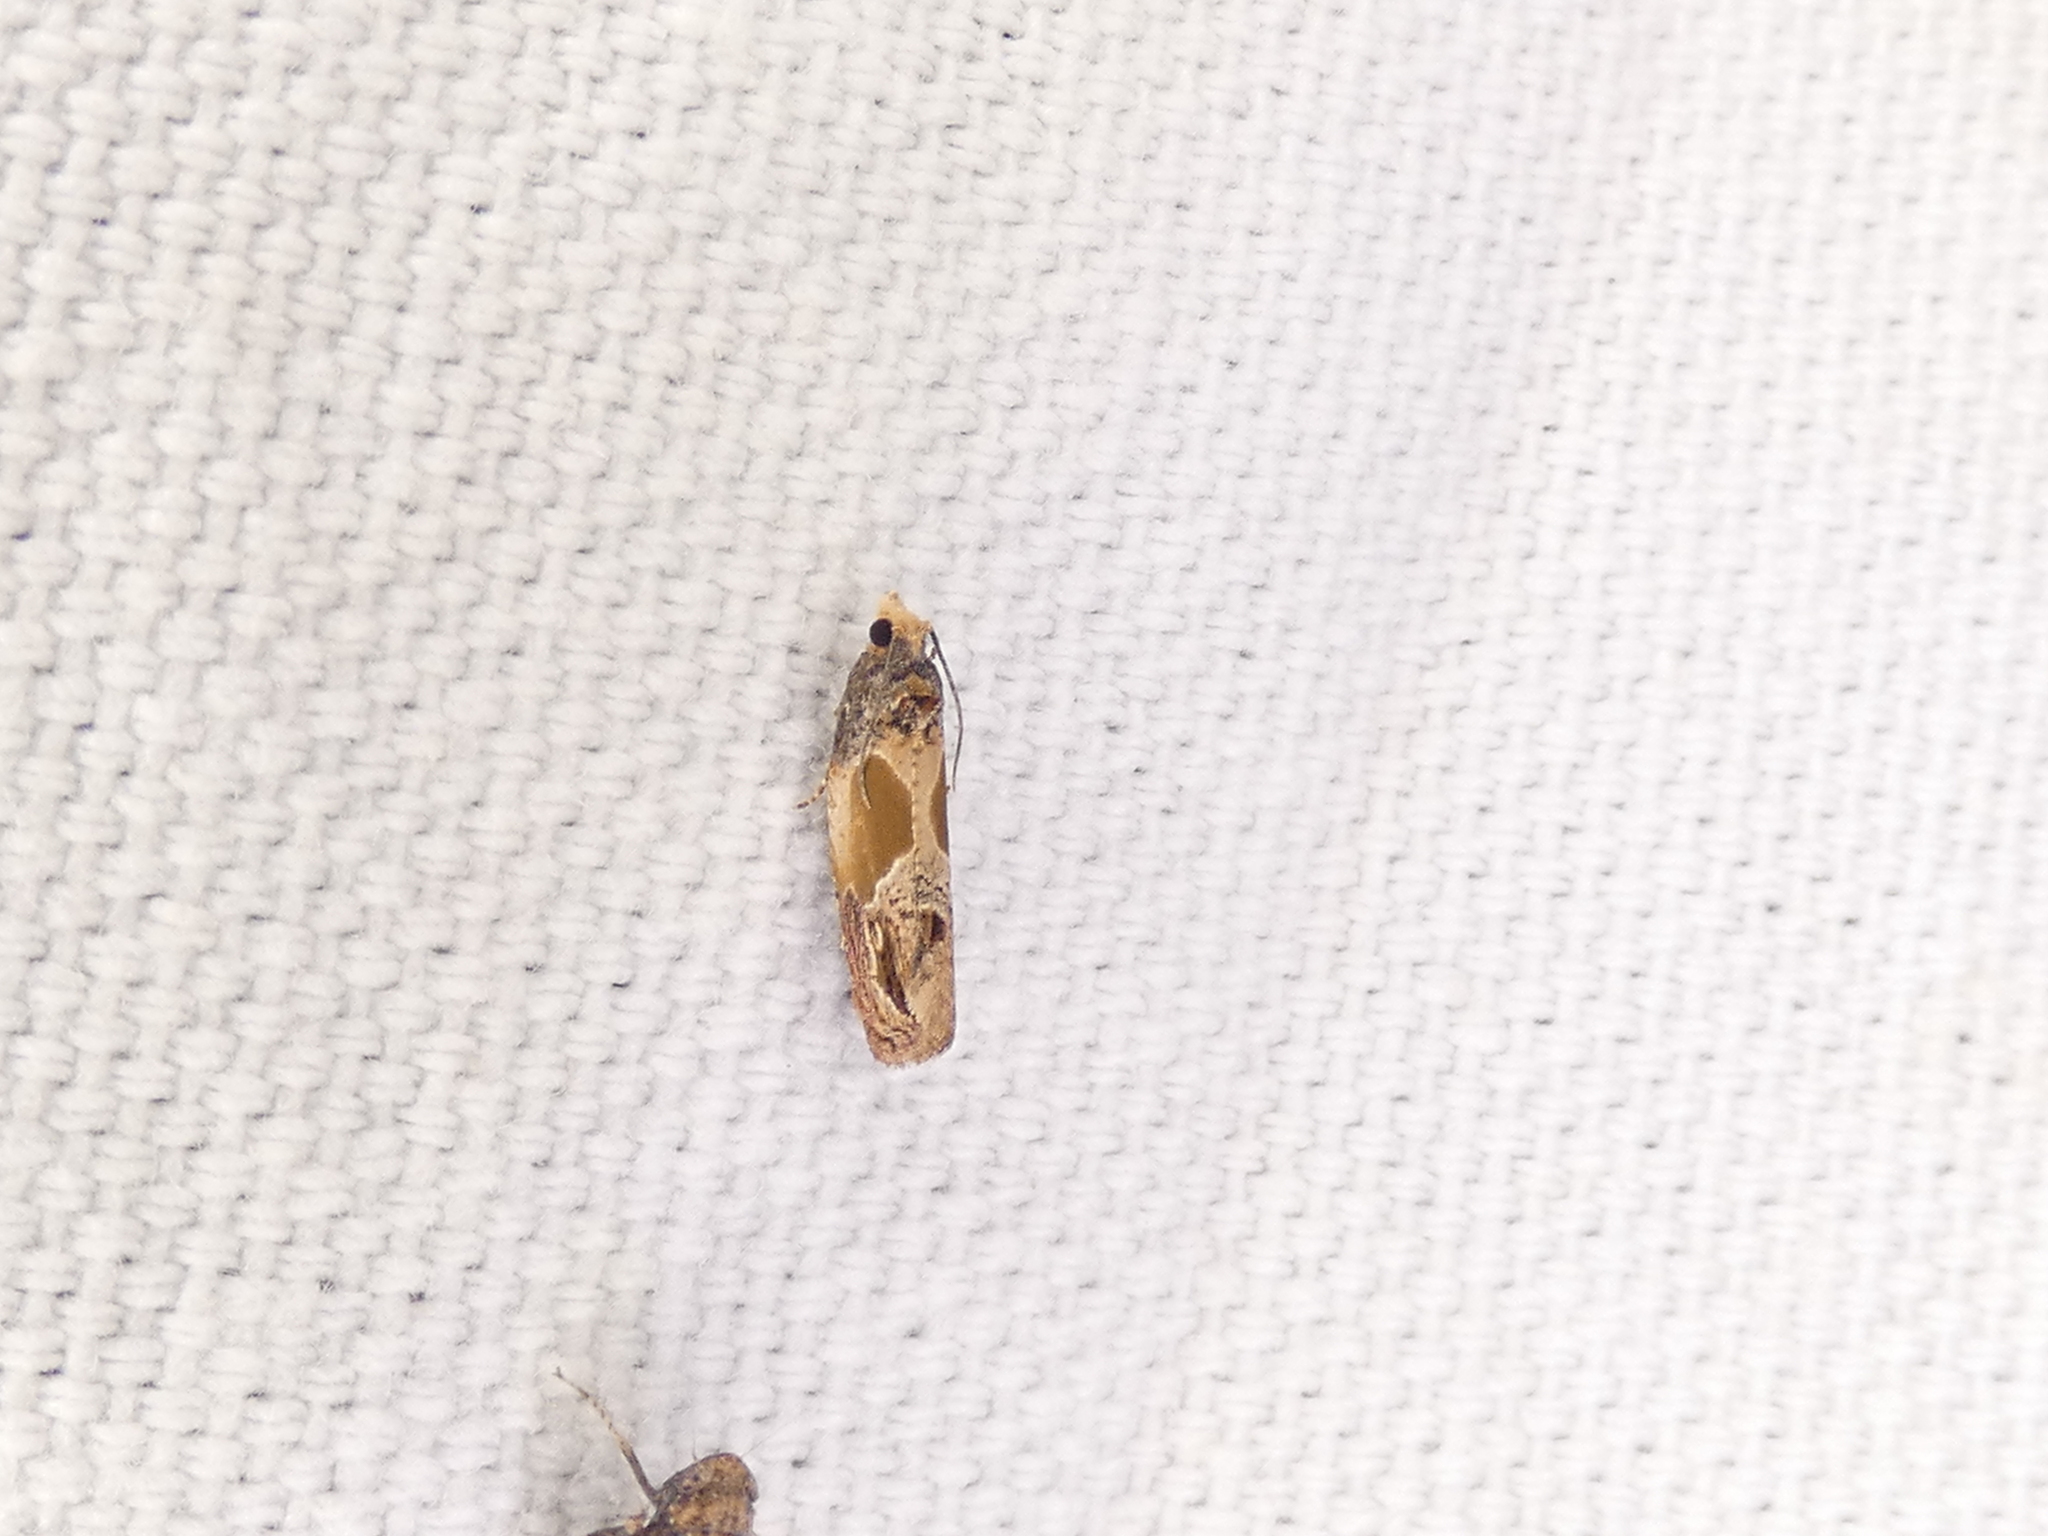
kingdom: Animalia
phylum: Arthropoda
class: Insecta
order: Lepidoptera
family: Tortricidae
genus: Eumarozia
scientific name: Eumarozia malachitana
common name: Sculptured moth
